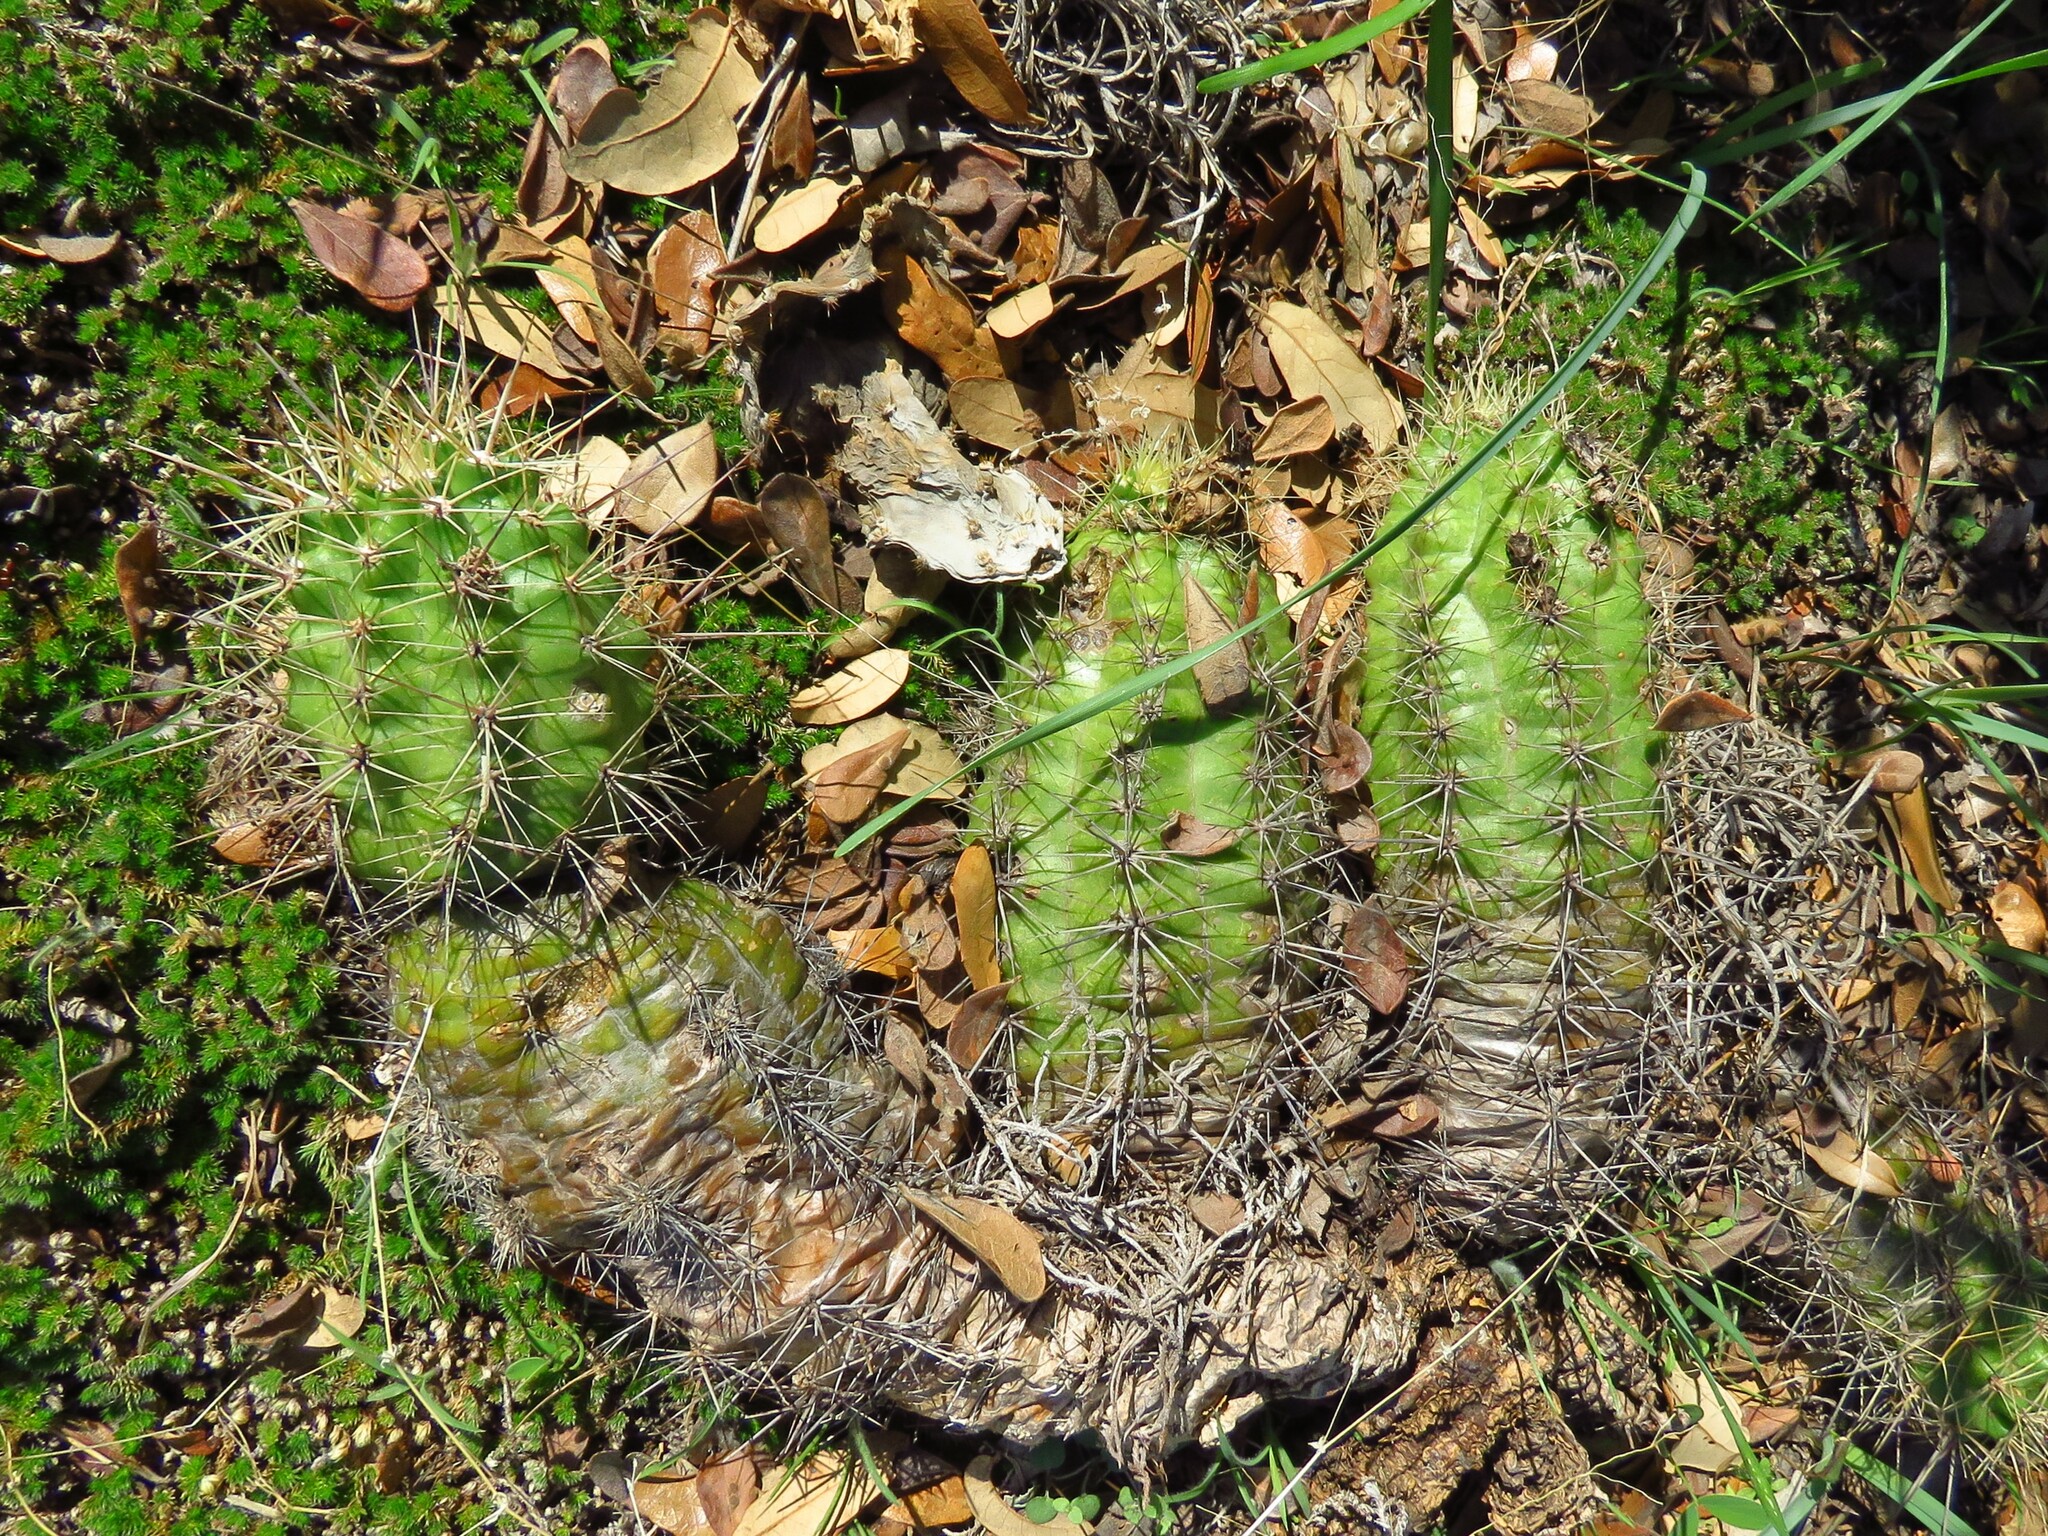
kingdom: Plantae
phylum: Tracheophyta
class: Magnoliopsida
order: Caryophyllales
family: Cactaceae
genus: Echinocereus
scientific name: Echinocereus coccineus
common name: Scarlet hedgehog cactus
